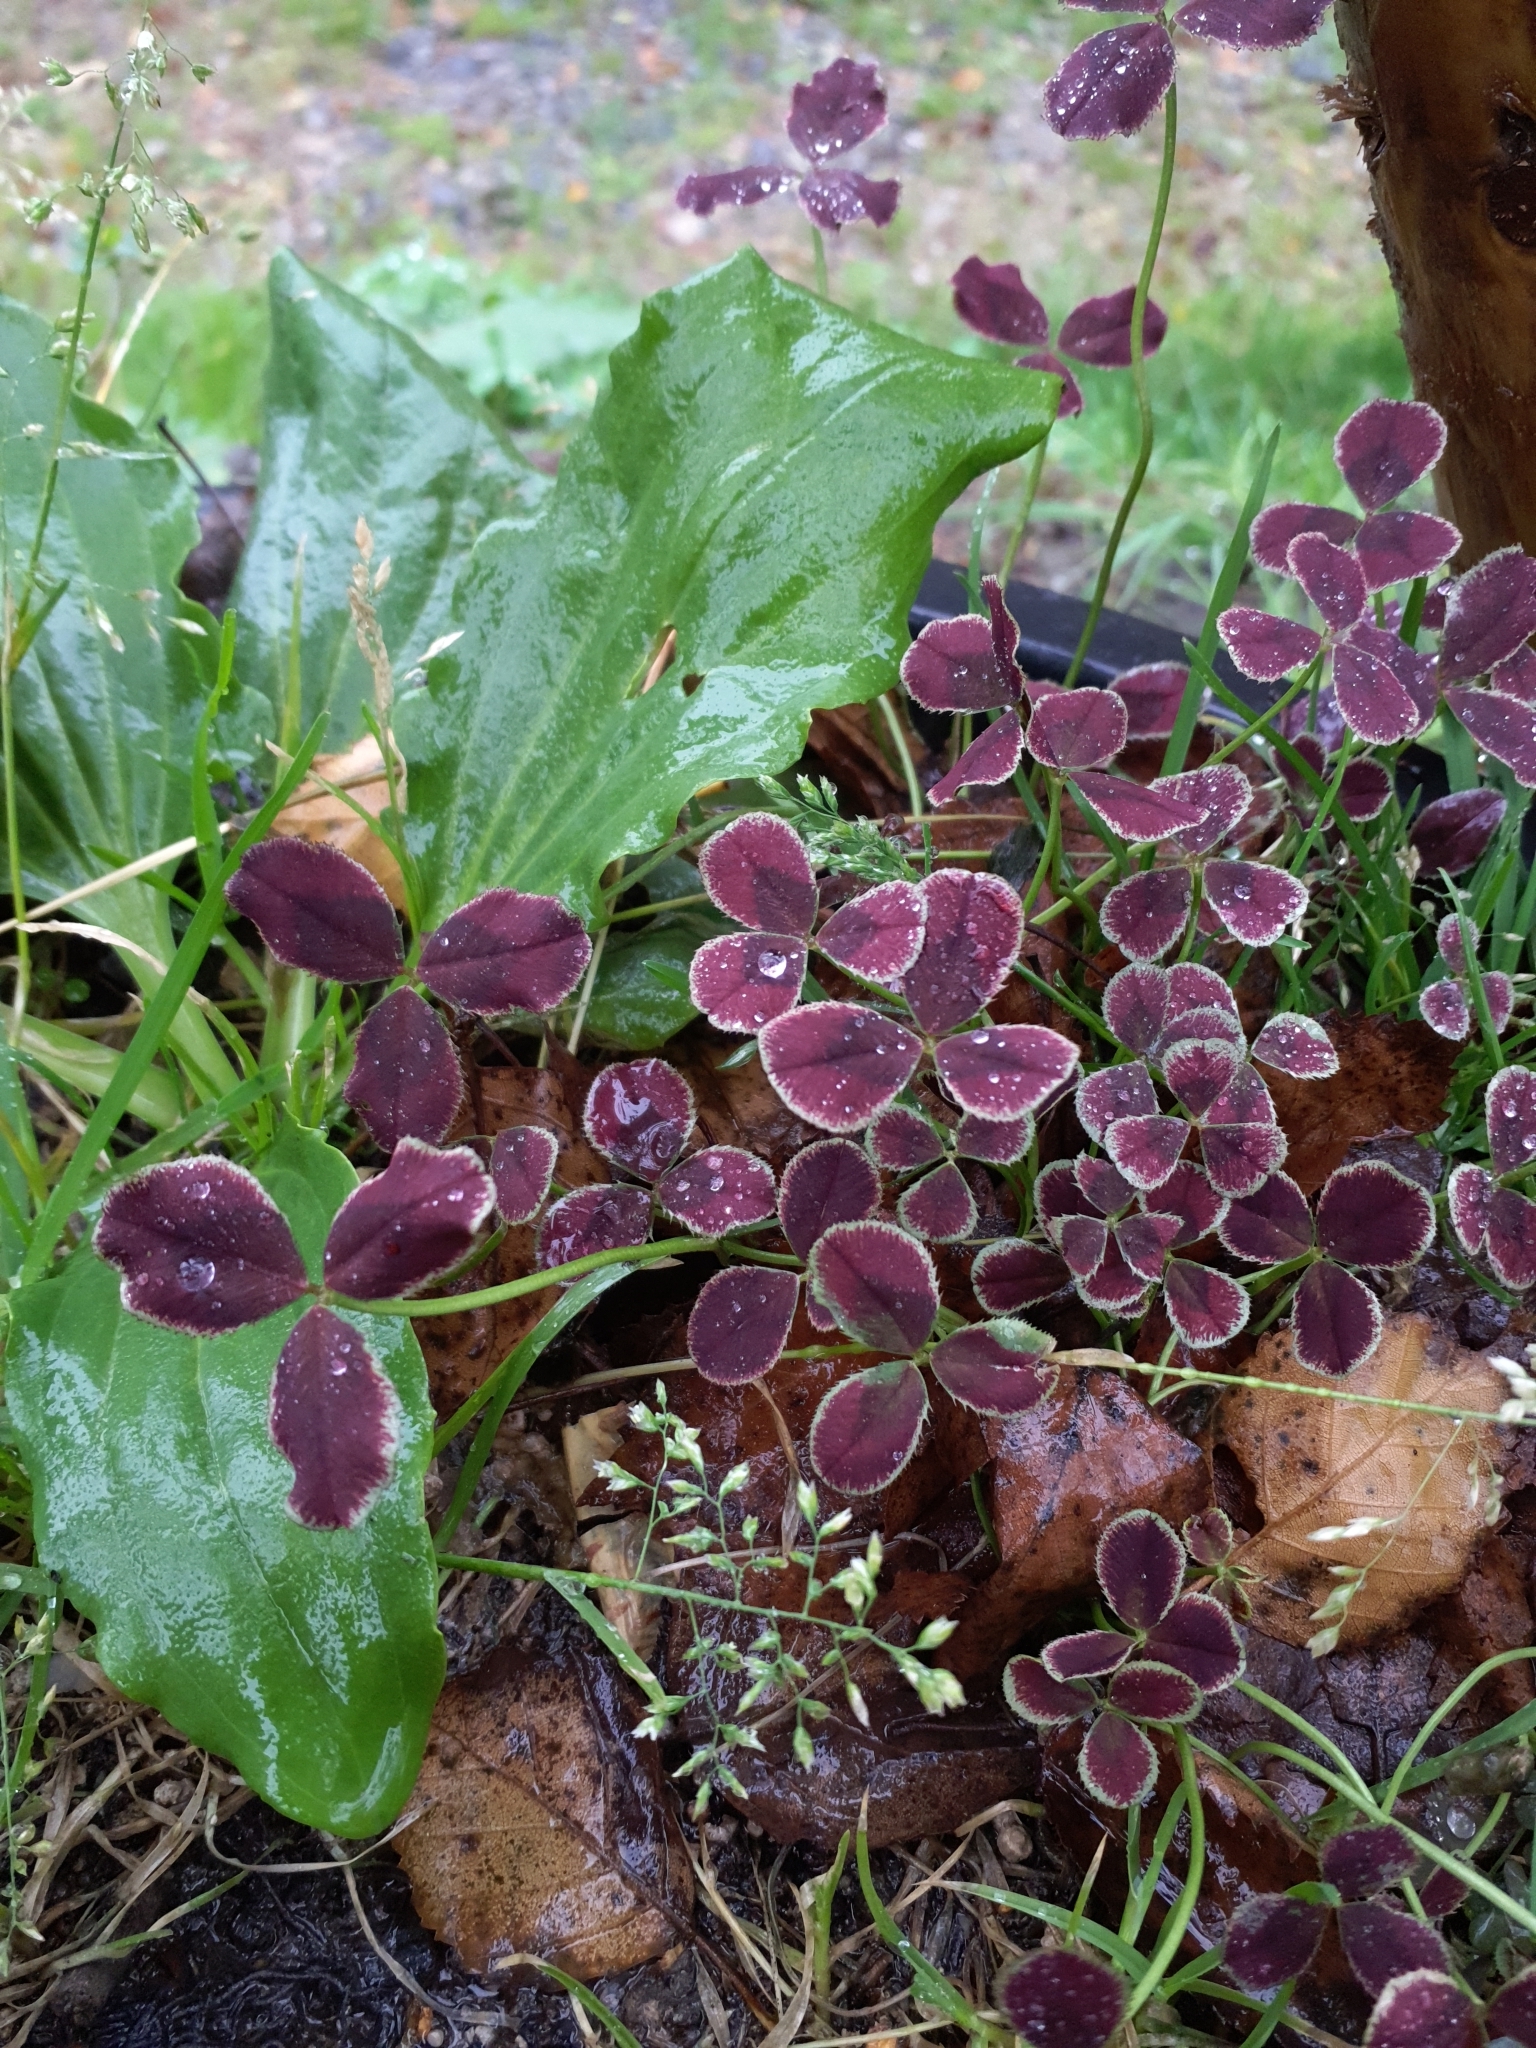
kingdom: Plantae
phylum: Tracheophyta
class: Magnoliopsida
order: Fabales
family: Fabaceae
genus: Trifolium
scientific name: Trifolium repens
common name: White clover
